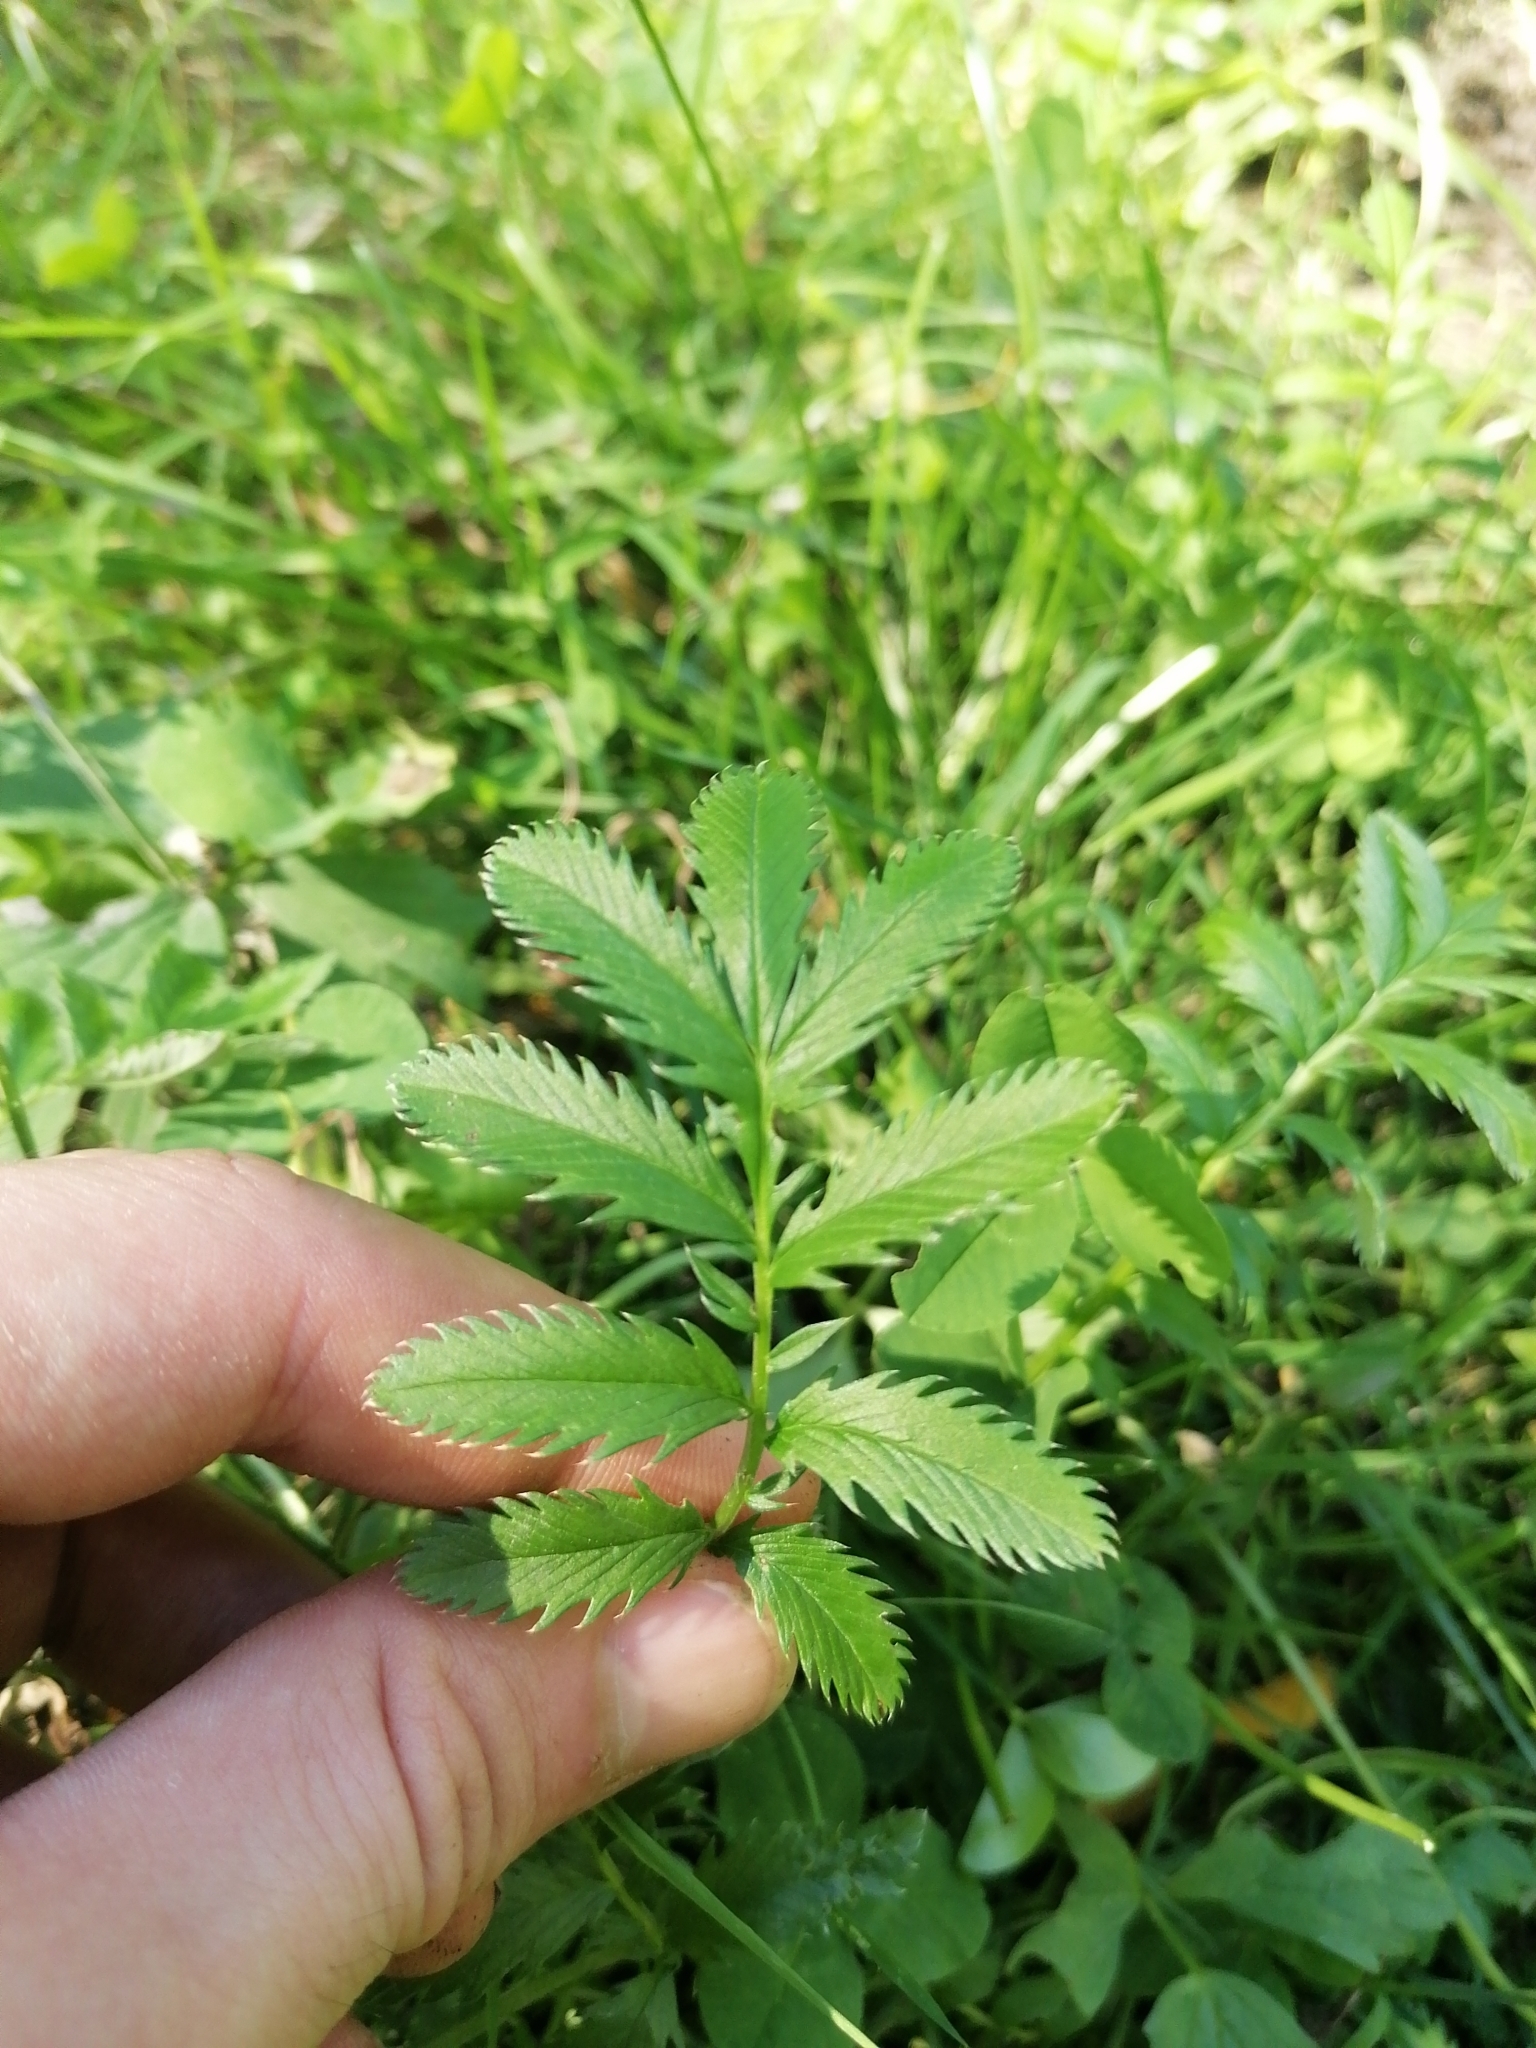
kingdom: Plantae
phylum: Tracheophyta
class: Magnoliopsida
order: Rosales
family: Rosaceae
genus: Argentina
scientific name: Argentina anserina
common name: Common silverweed
